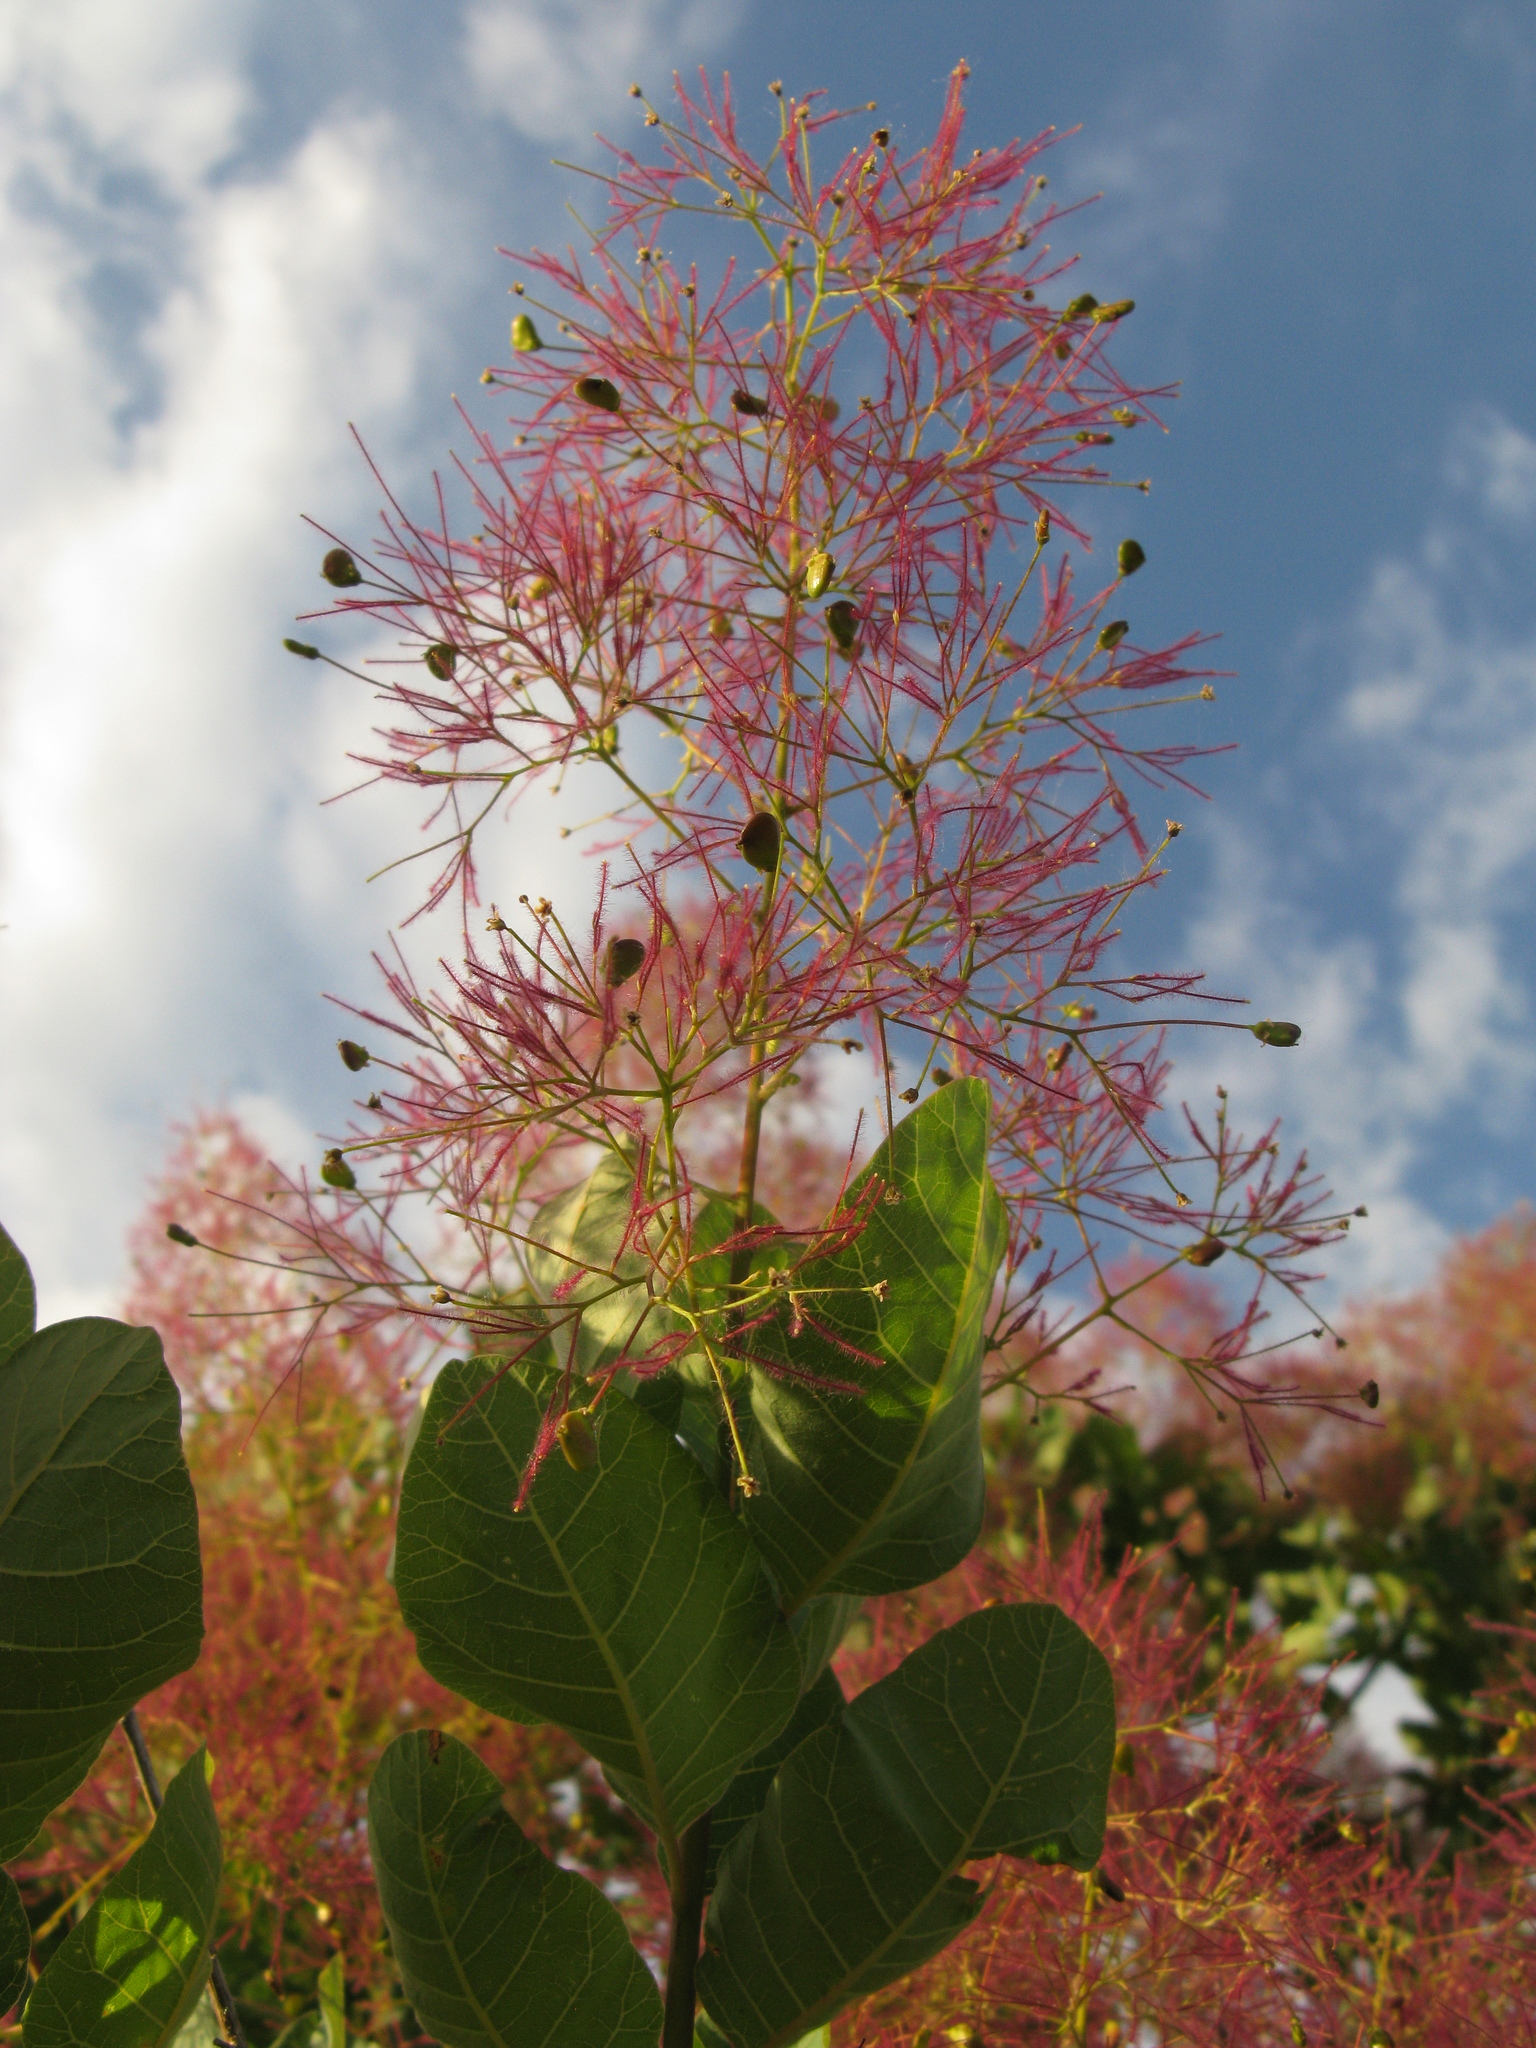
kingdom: Plantae
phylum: Tracheophyta
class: Magnoliopsida
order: Sapindales
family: Anacardiaceae
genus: Cotinus
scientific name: Cotinus coggygria
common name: Smoke-tree
